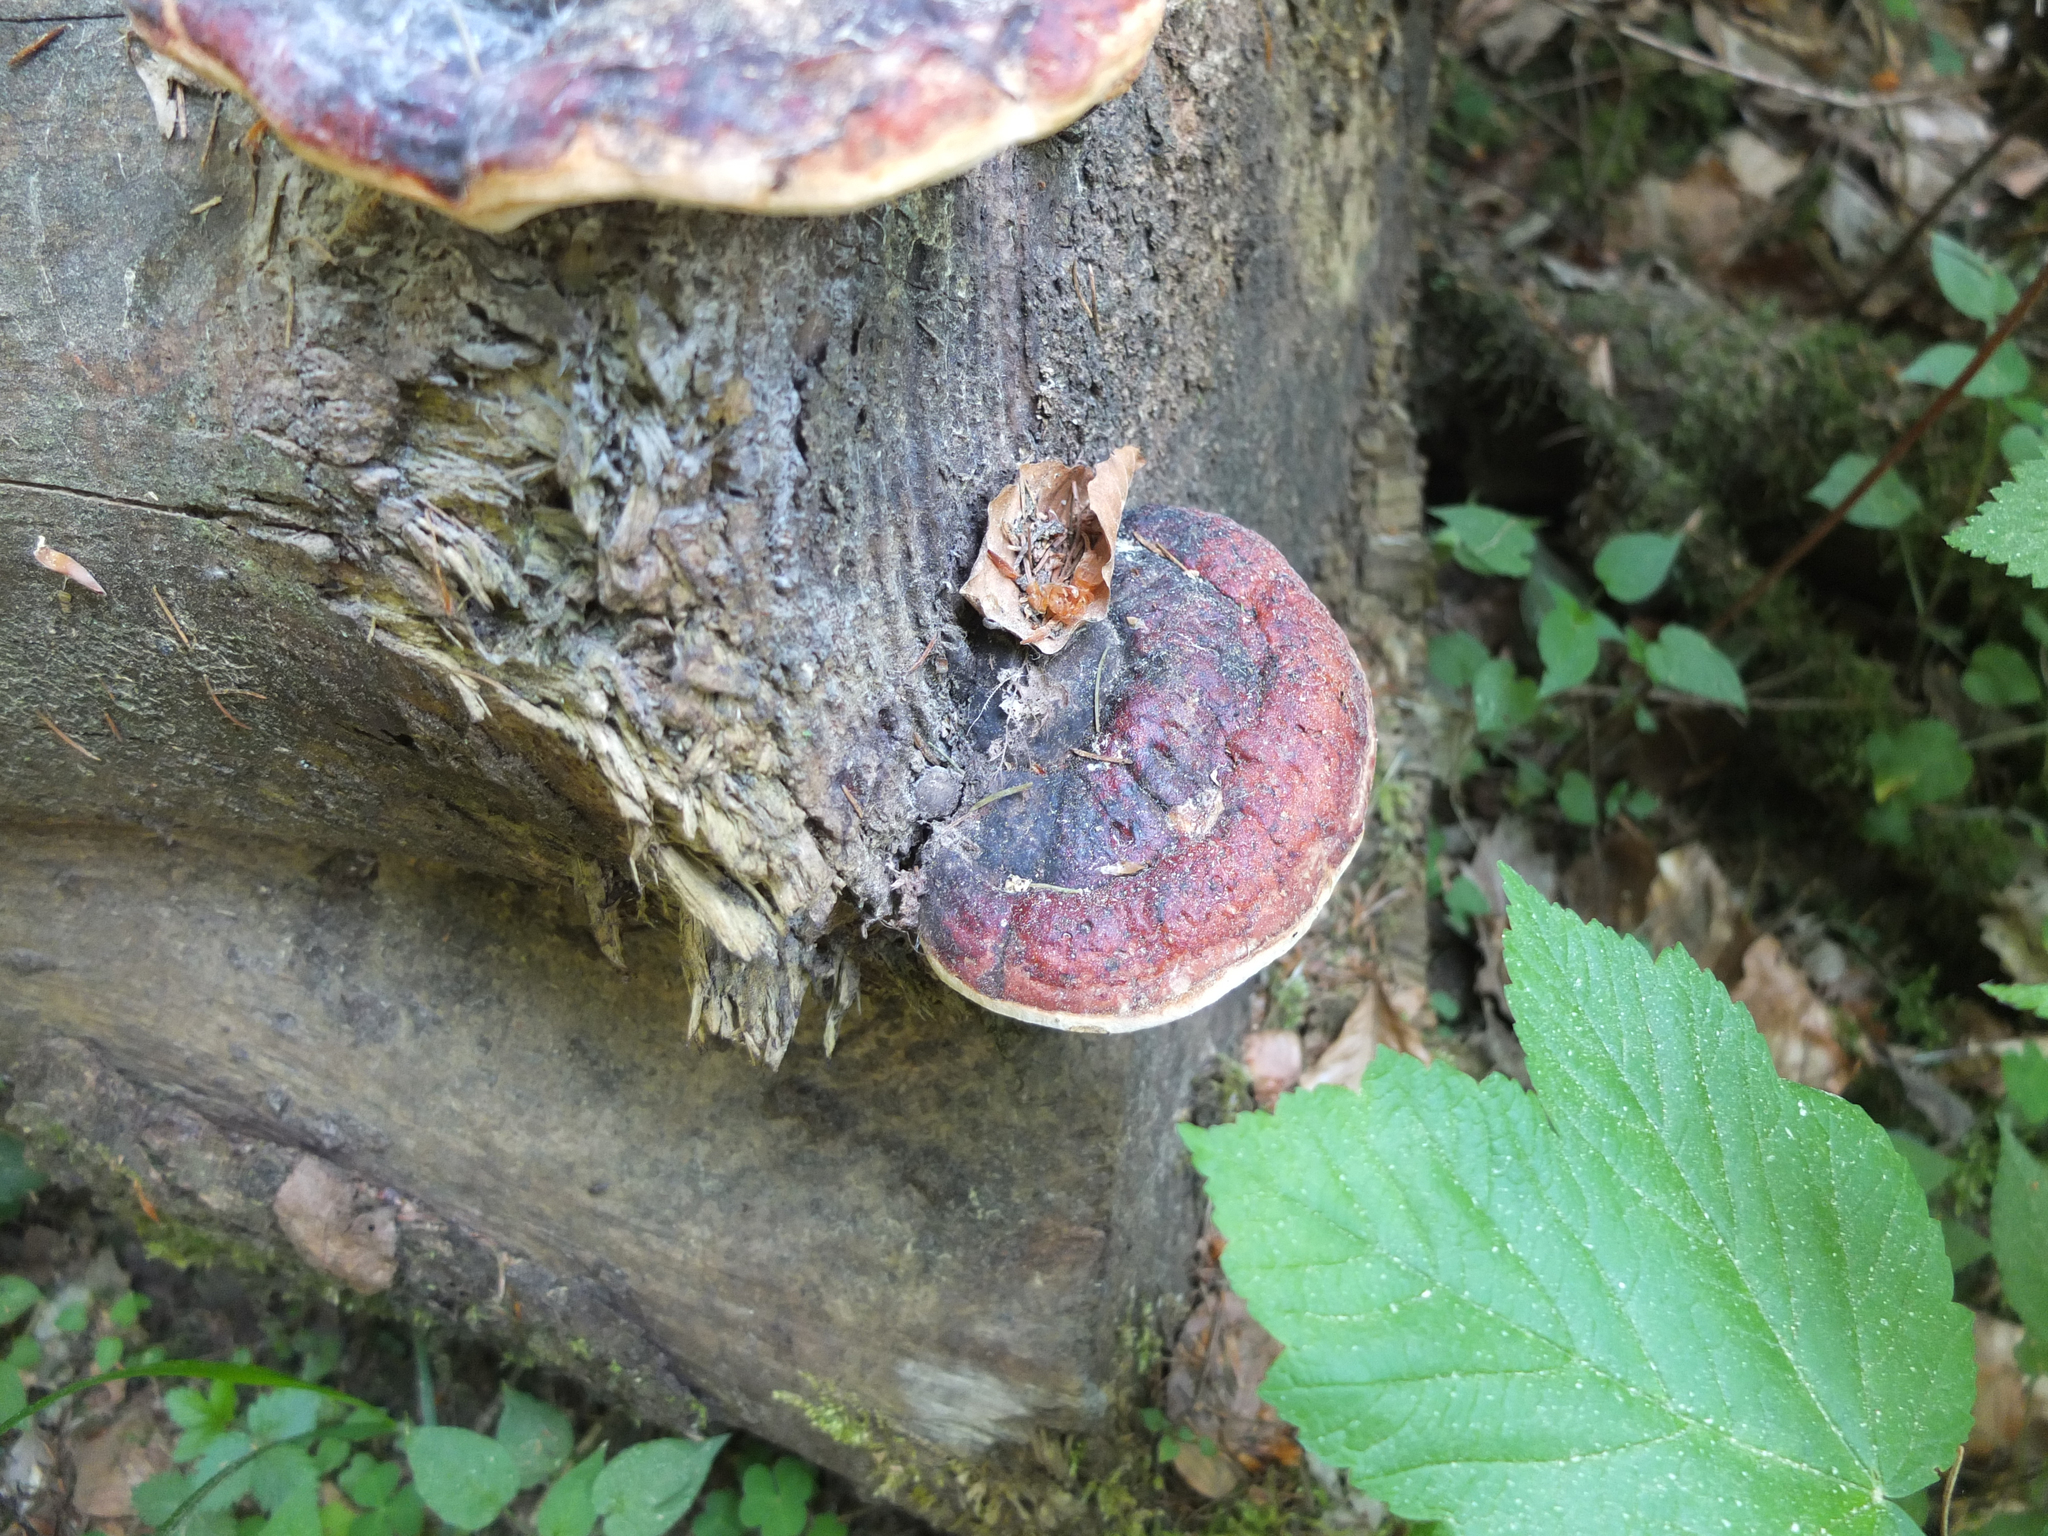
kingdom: Fungi
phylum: Basidiomycota
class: Agaricomycetes
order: Polyporales
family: Fomitopsidaceae
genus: Fomitopsis
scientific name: Fomitopsis pinicola
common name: Red-belted bracket
